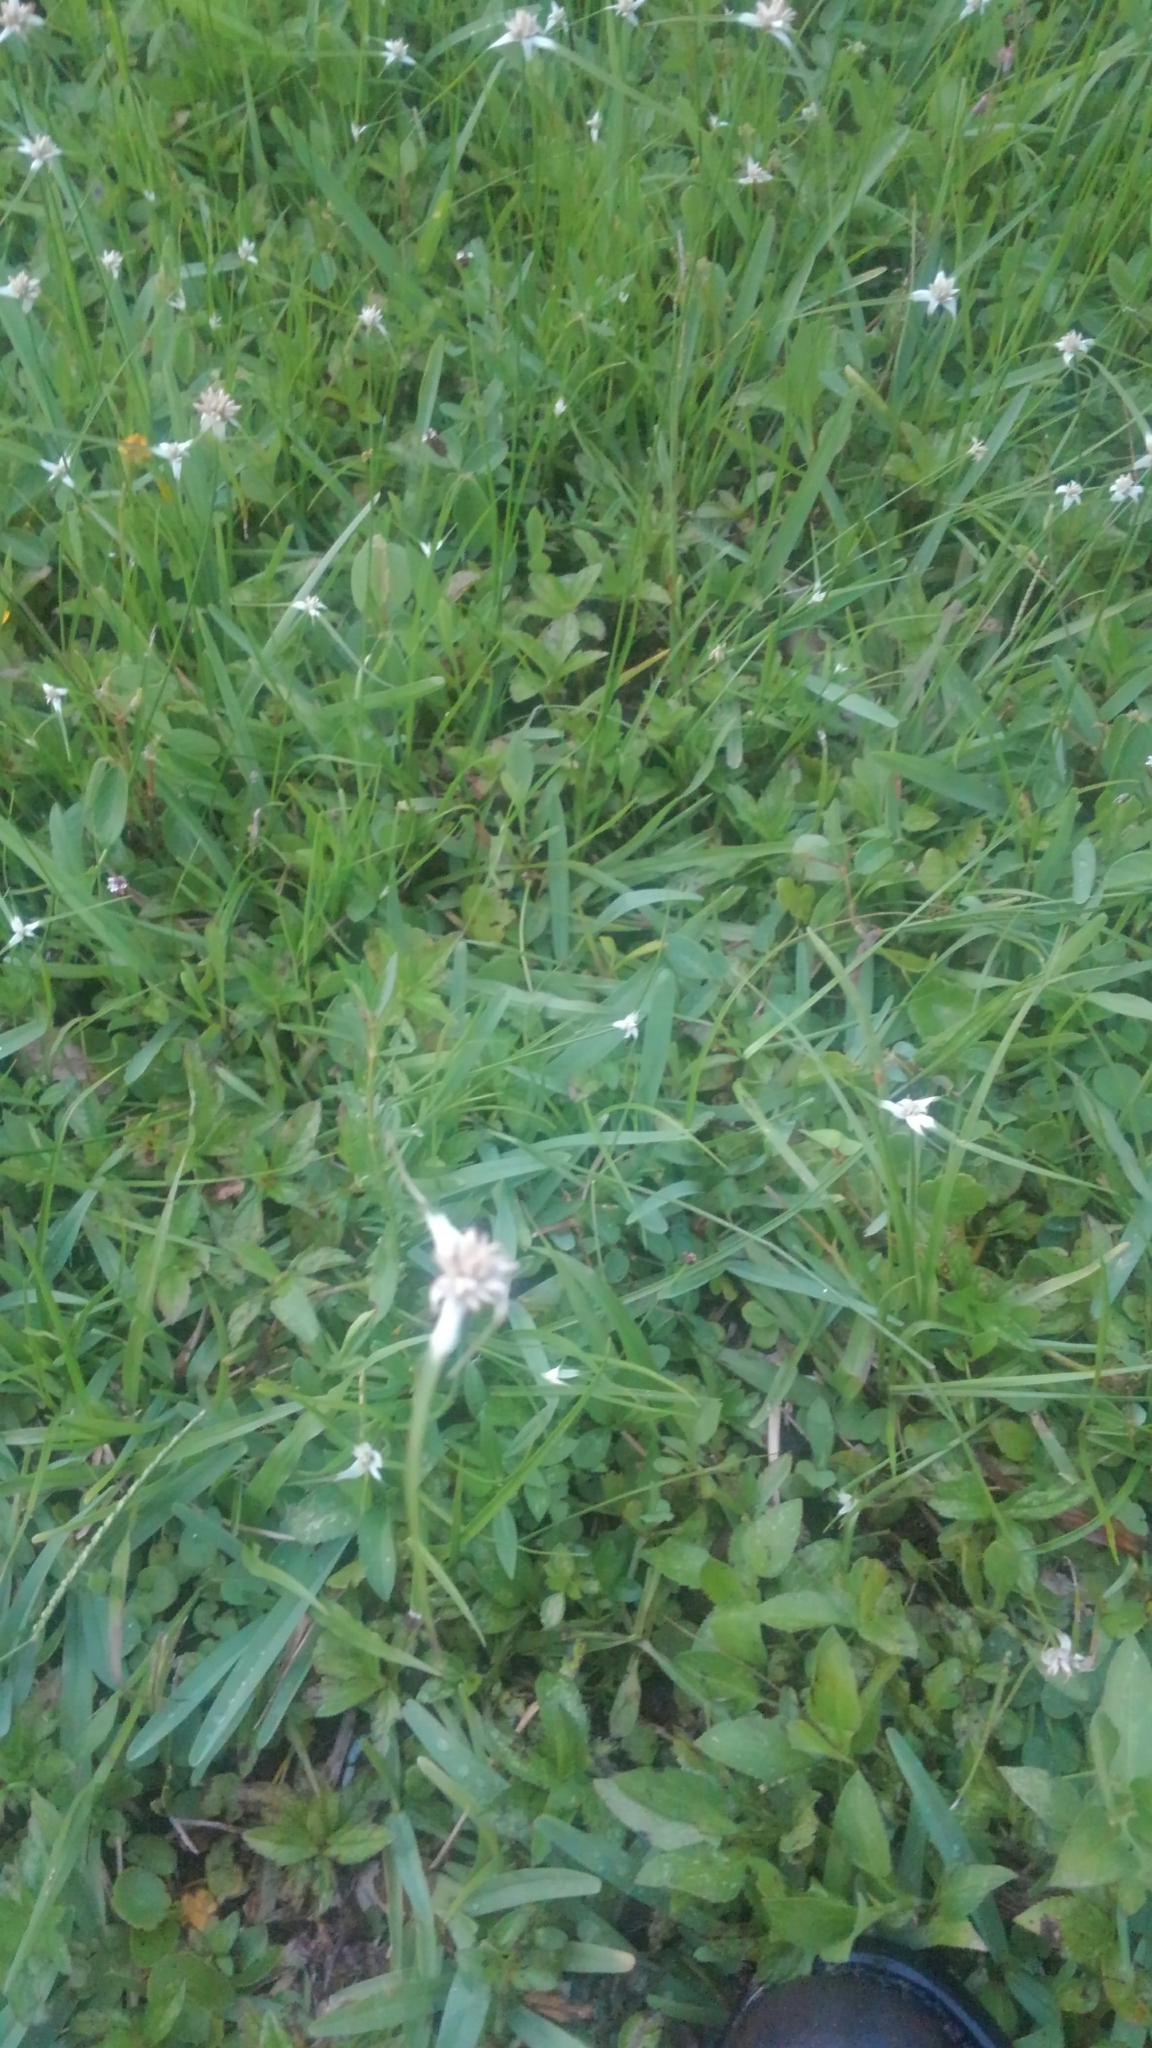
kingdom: Plantae
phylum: Tracheophyta
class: Liliopsida
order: Poales
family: Cyperaceae
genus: Rhynchospora
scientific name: Rhynchospora colorata
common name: Star sedge
